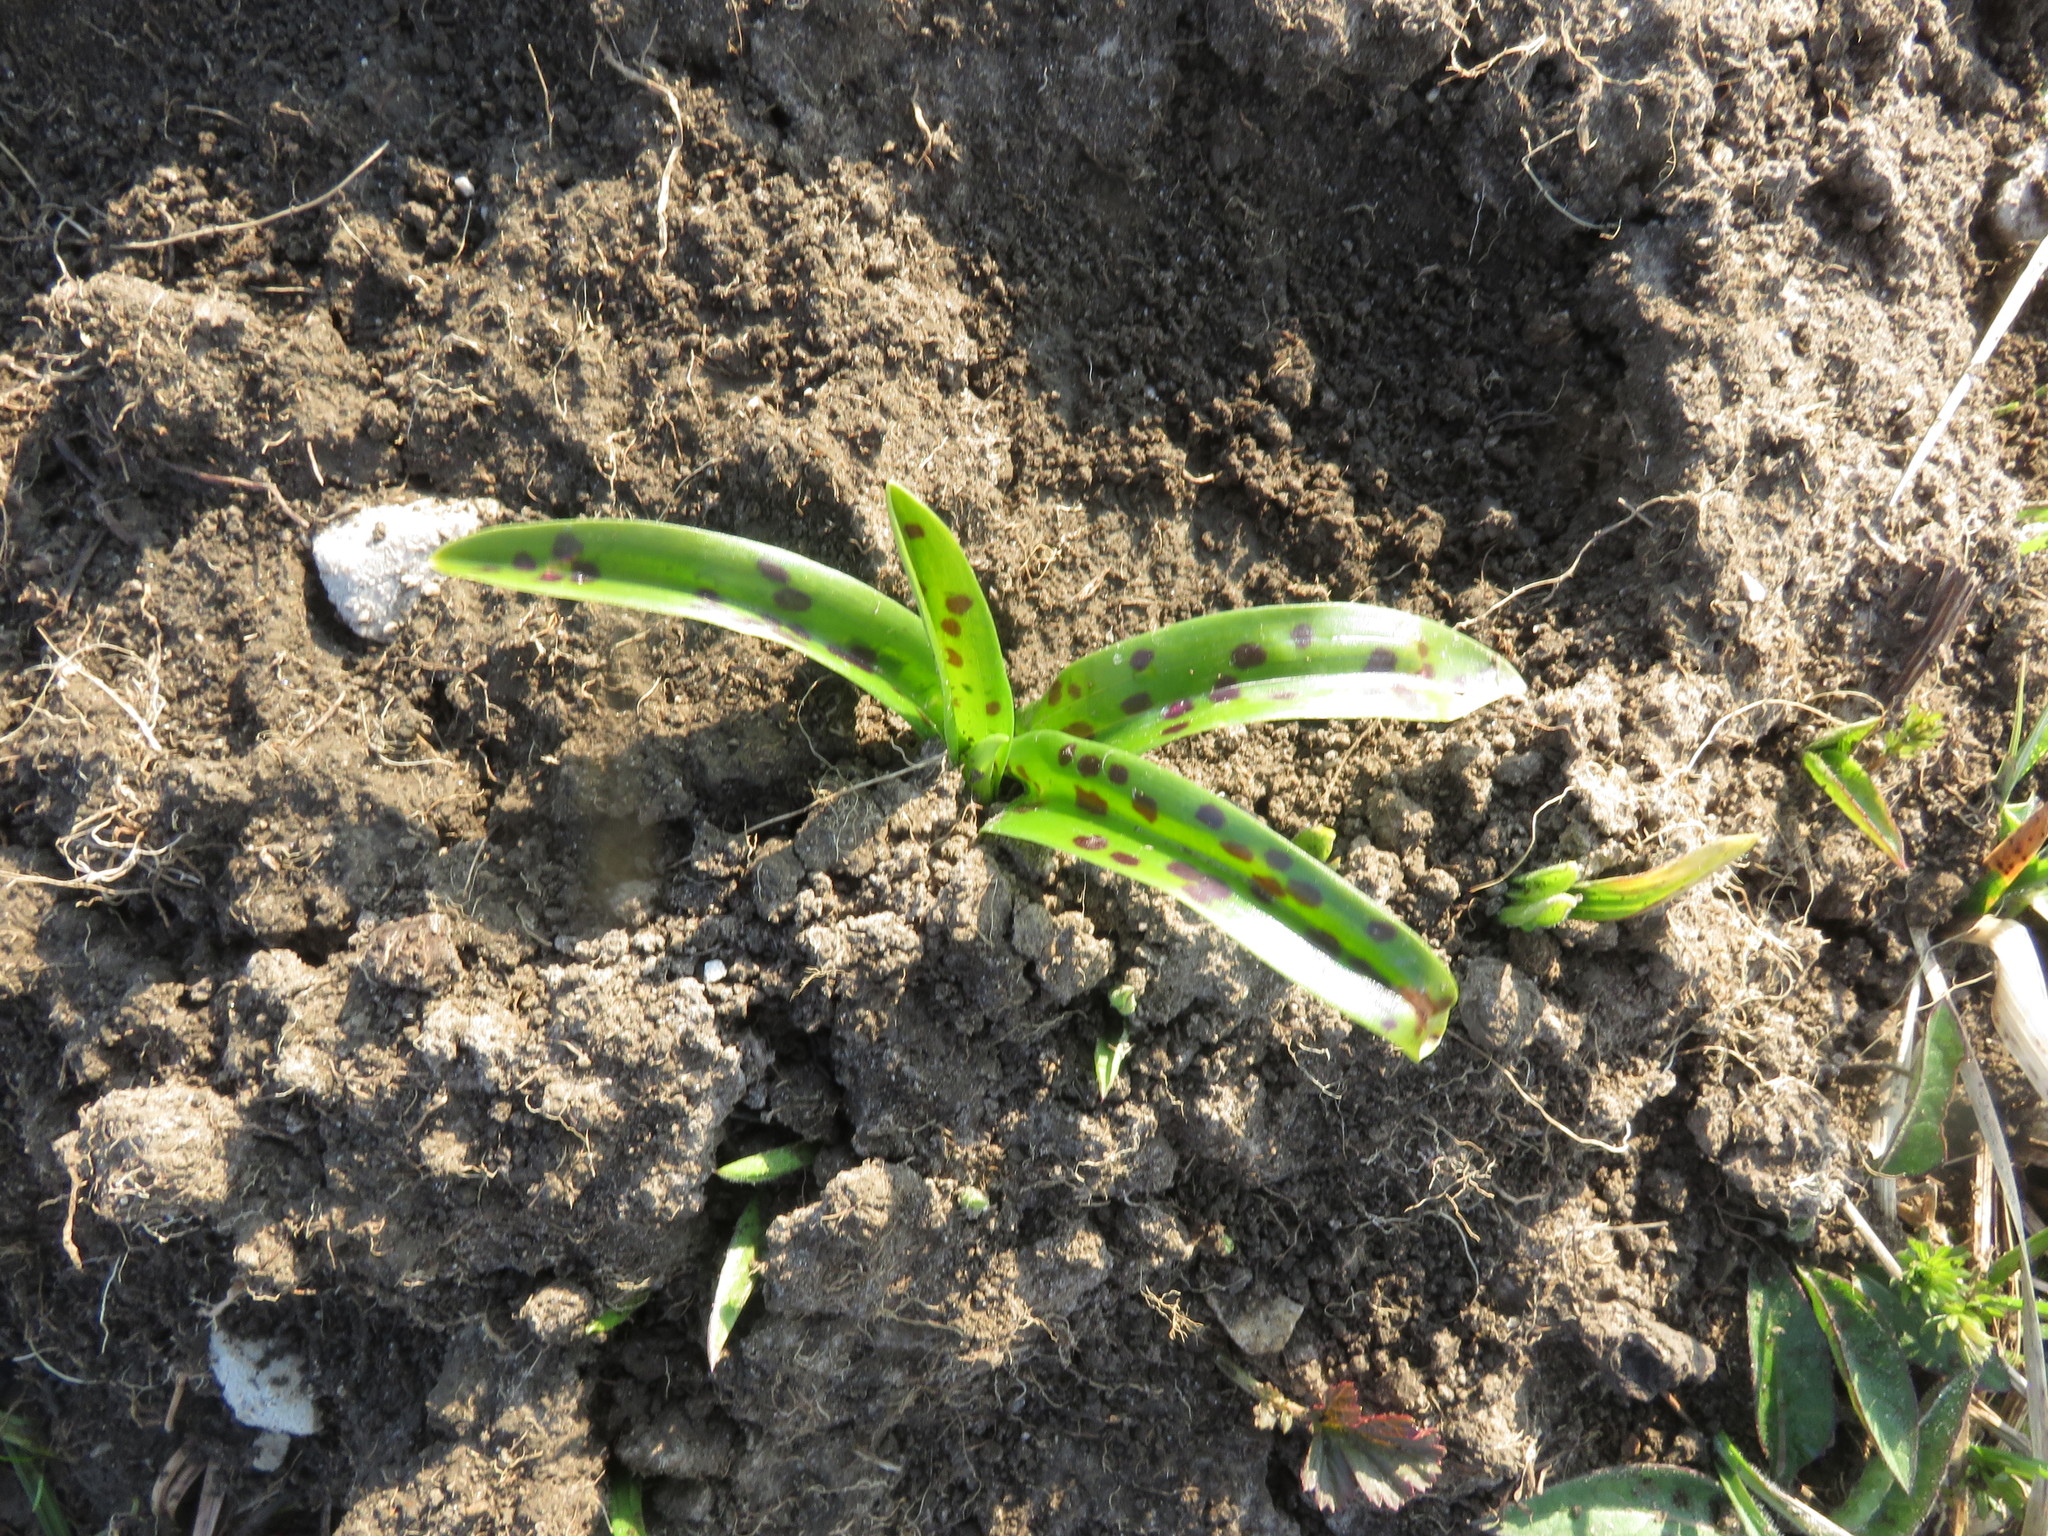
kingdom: Plantae
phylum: Tracheophyta
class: Liliopsida
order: Asparagales
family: Orchidaceae
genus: Dactylorhiza
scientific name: Dactylorhiza maculata
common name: Heath spotted-orchid
